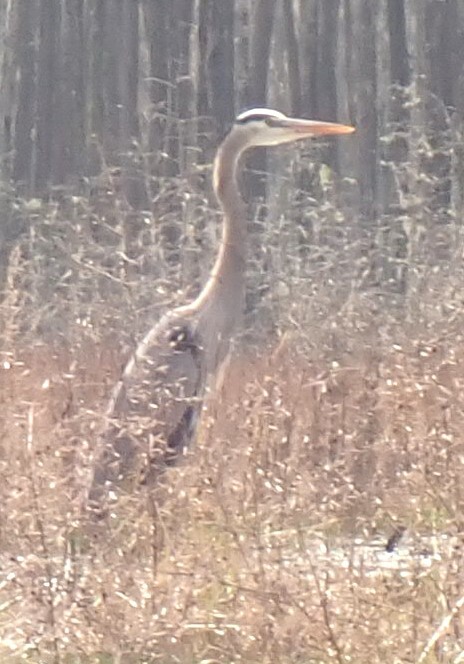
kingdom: Animalia
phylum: Chordata
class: Aves
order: Pelecaniformes
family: Ardeidae
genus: Ardea
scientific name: Ardea herodias
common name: Great blue heron
